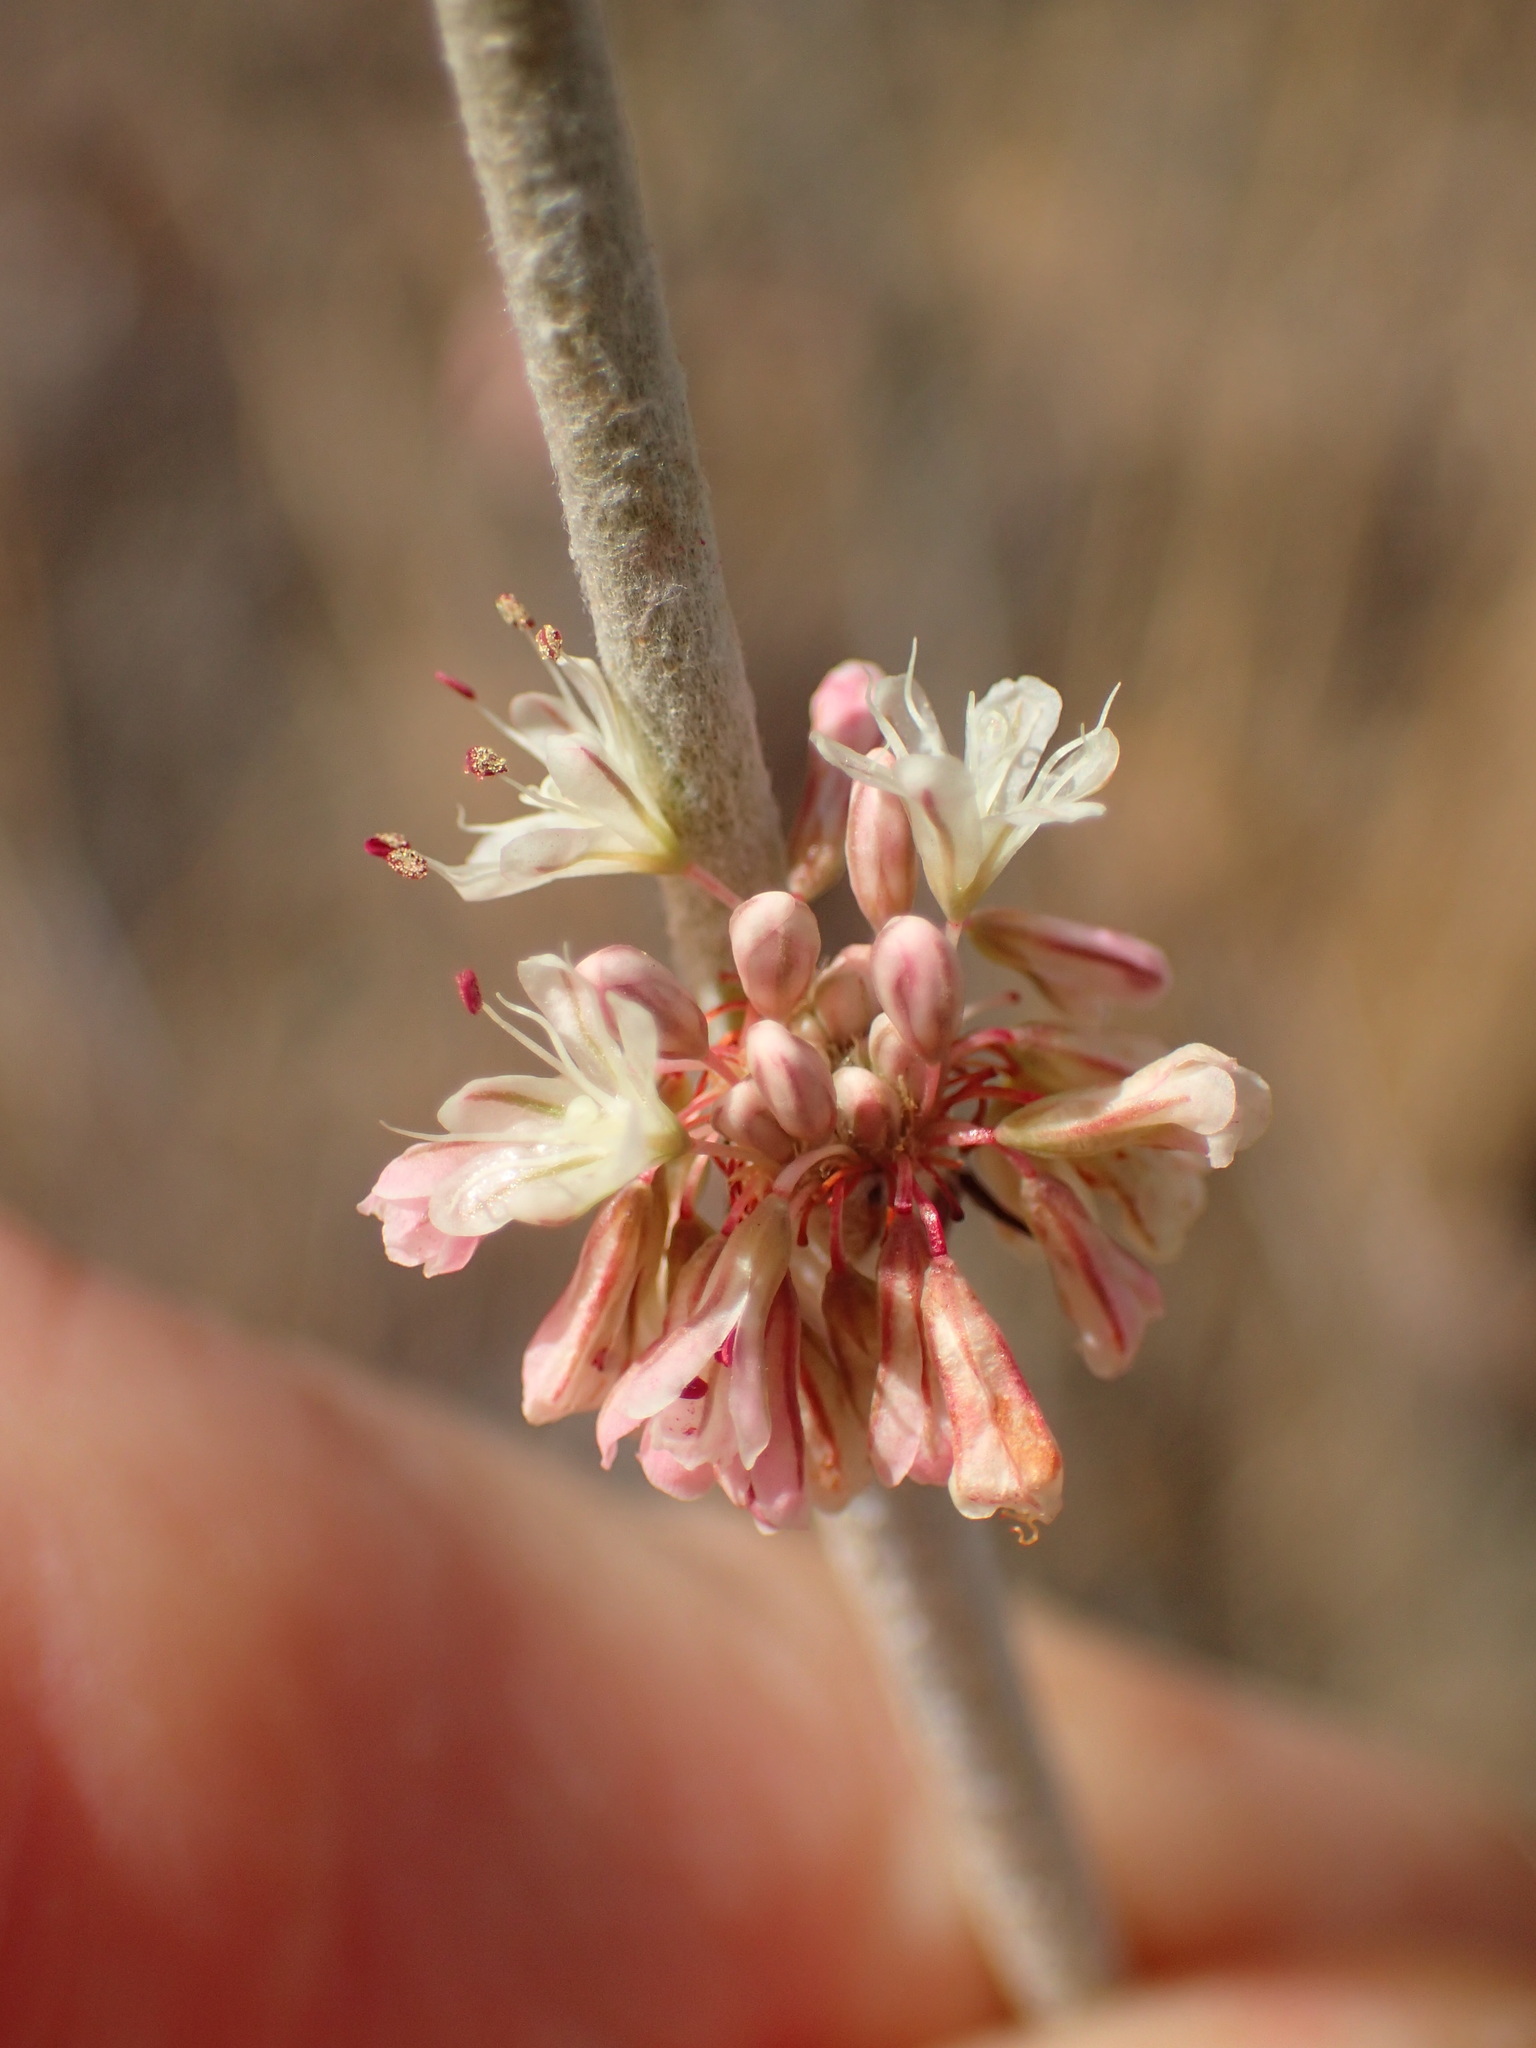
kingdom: Plantae
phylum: Tracheophyta
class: Magnoliopsida
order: Caryophyllales
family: Polygonaceae
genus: Eriogonum
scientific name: Eriogonum elongatum
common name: Long-stem wild buckwheat
